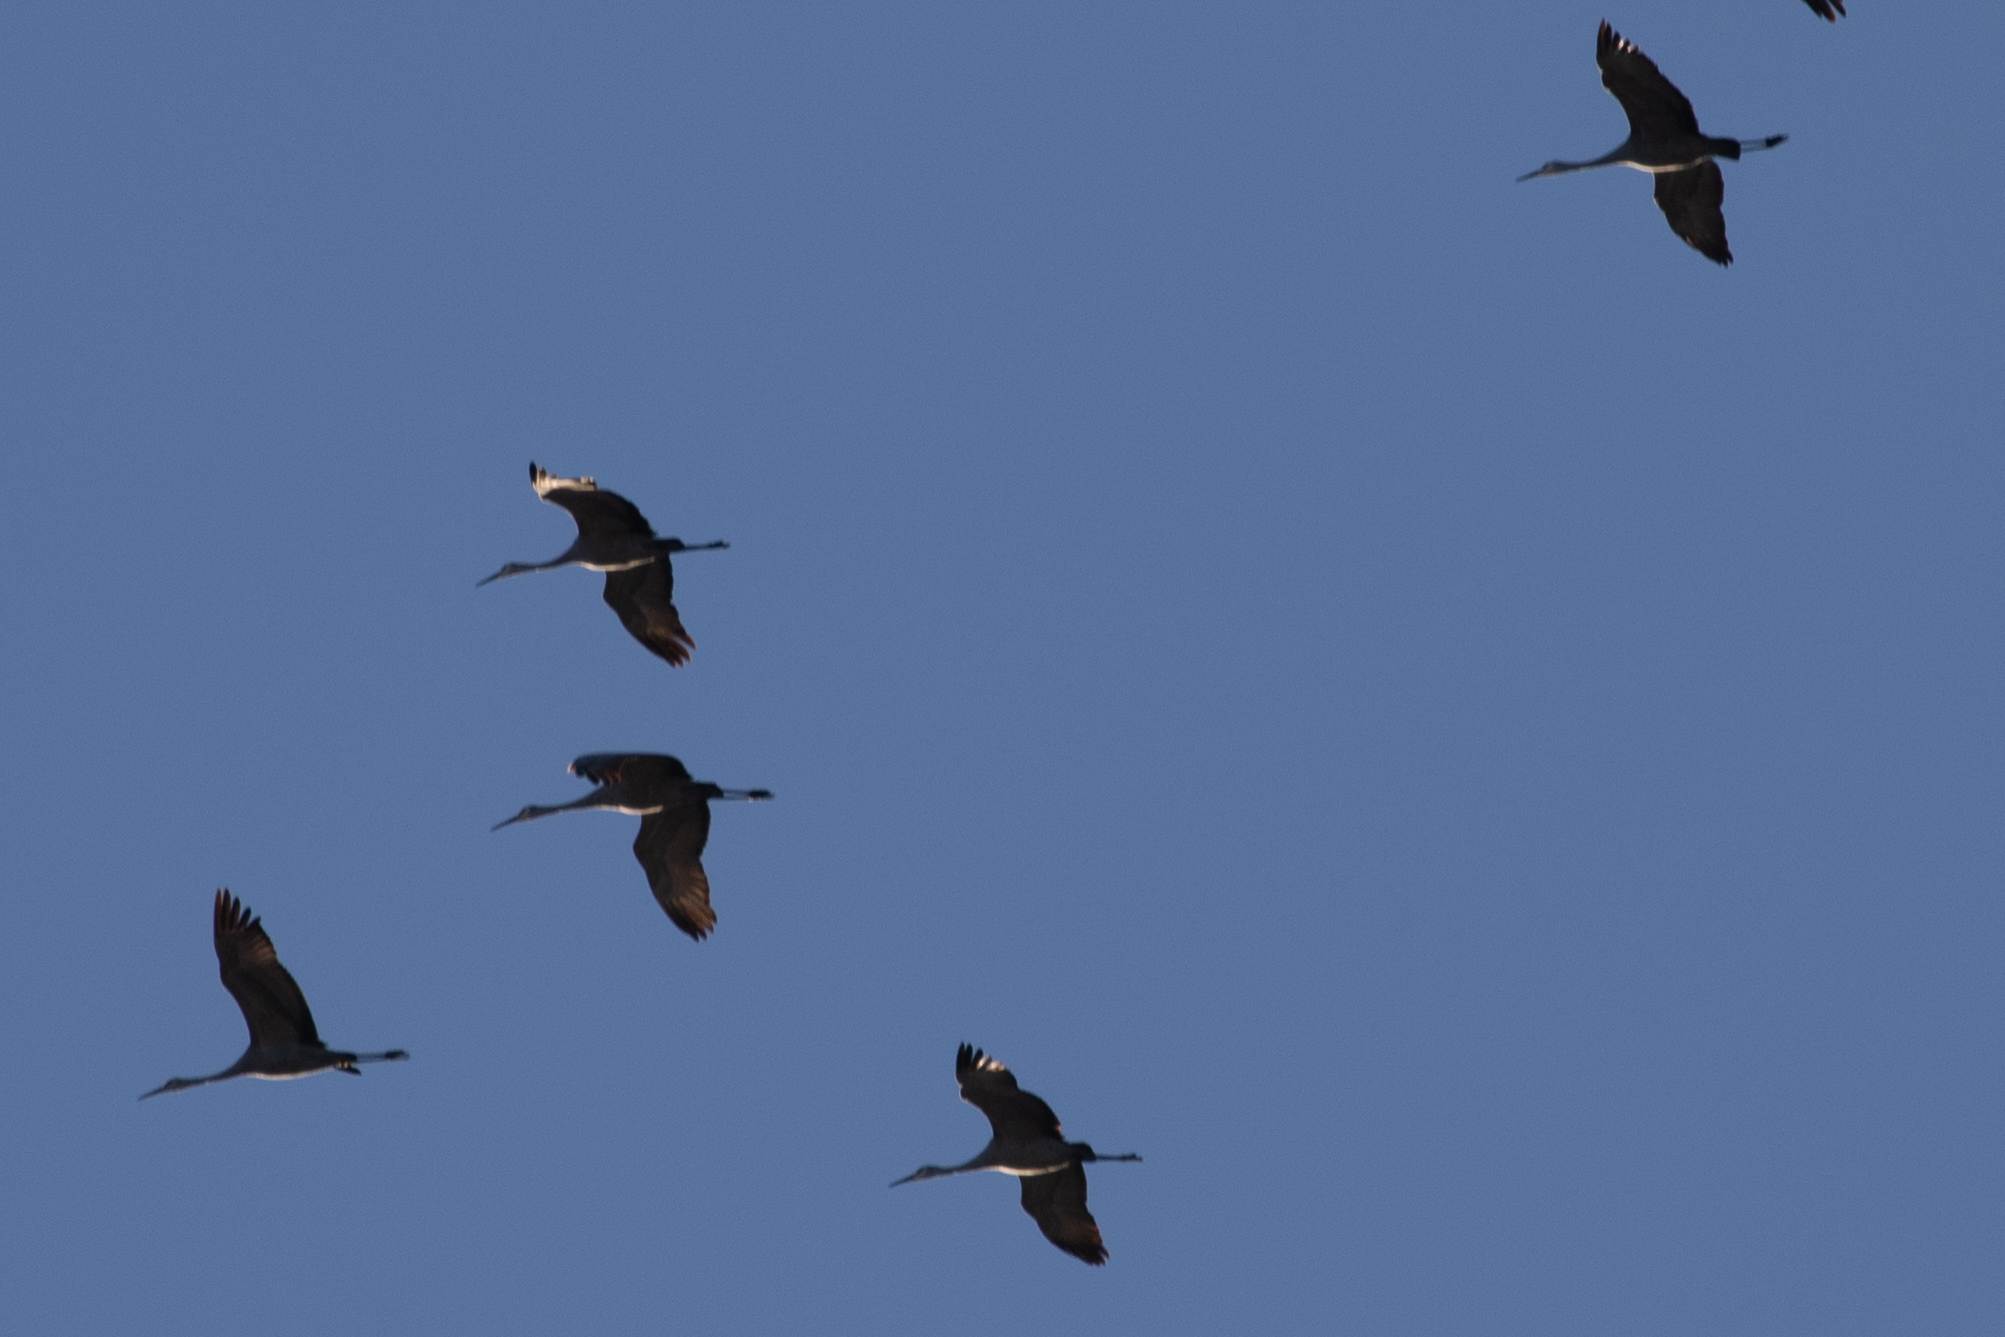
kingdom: Animalia
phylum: Chordata
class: Aves
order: Gruiformes
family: Gruidae
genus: Grus
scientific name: Grus canadensis
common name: Sandhill crane
